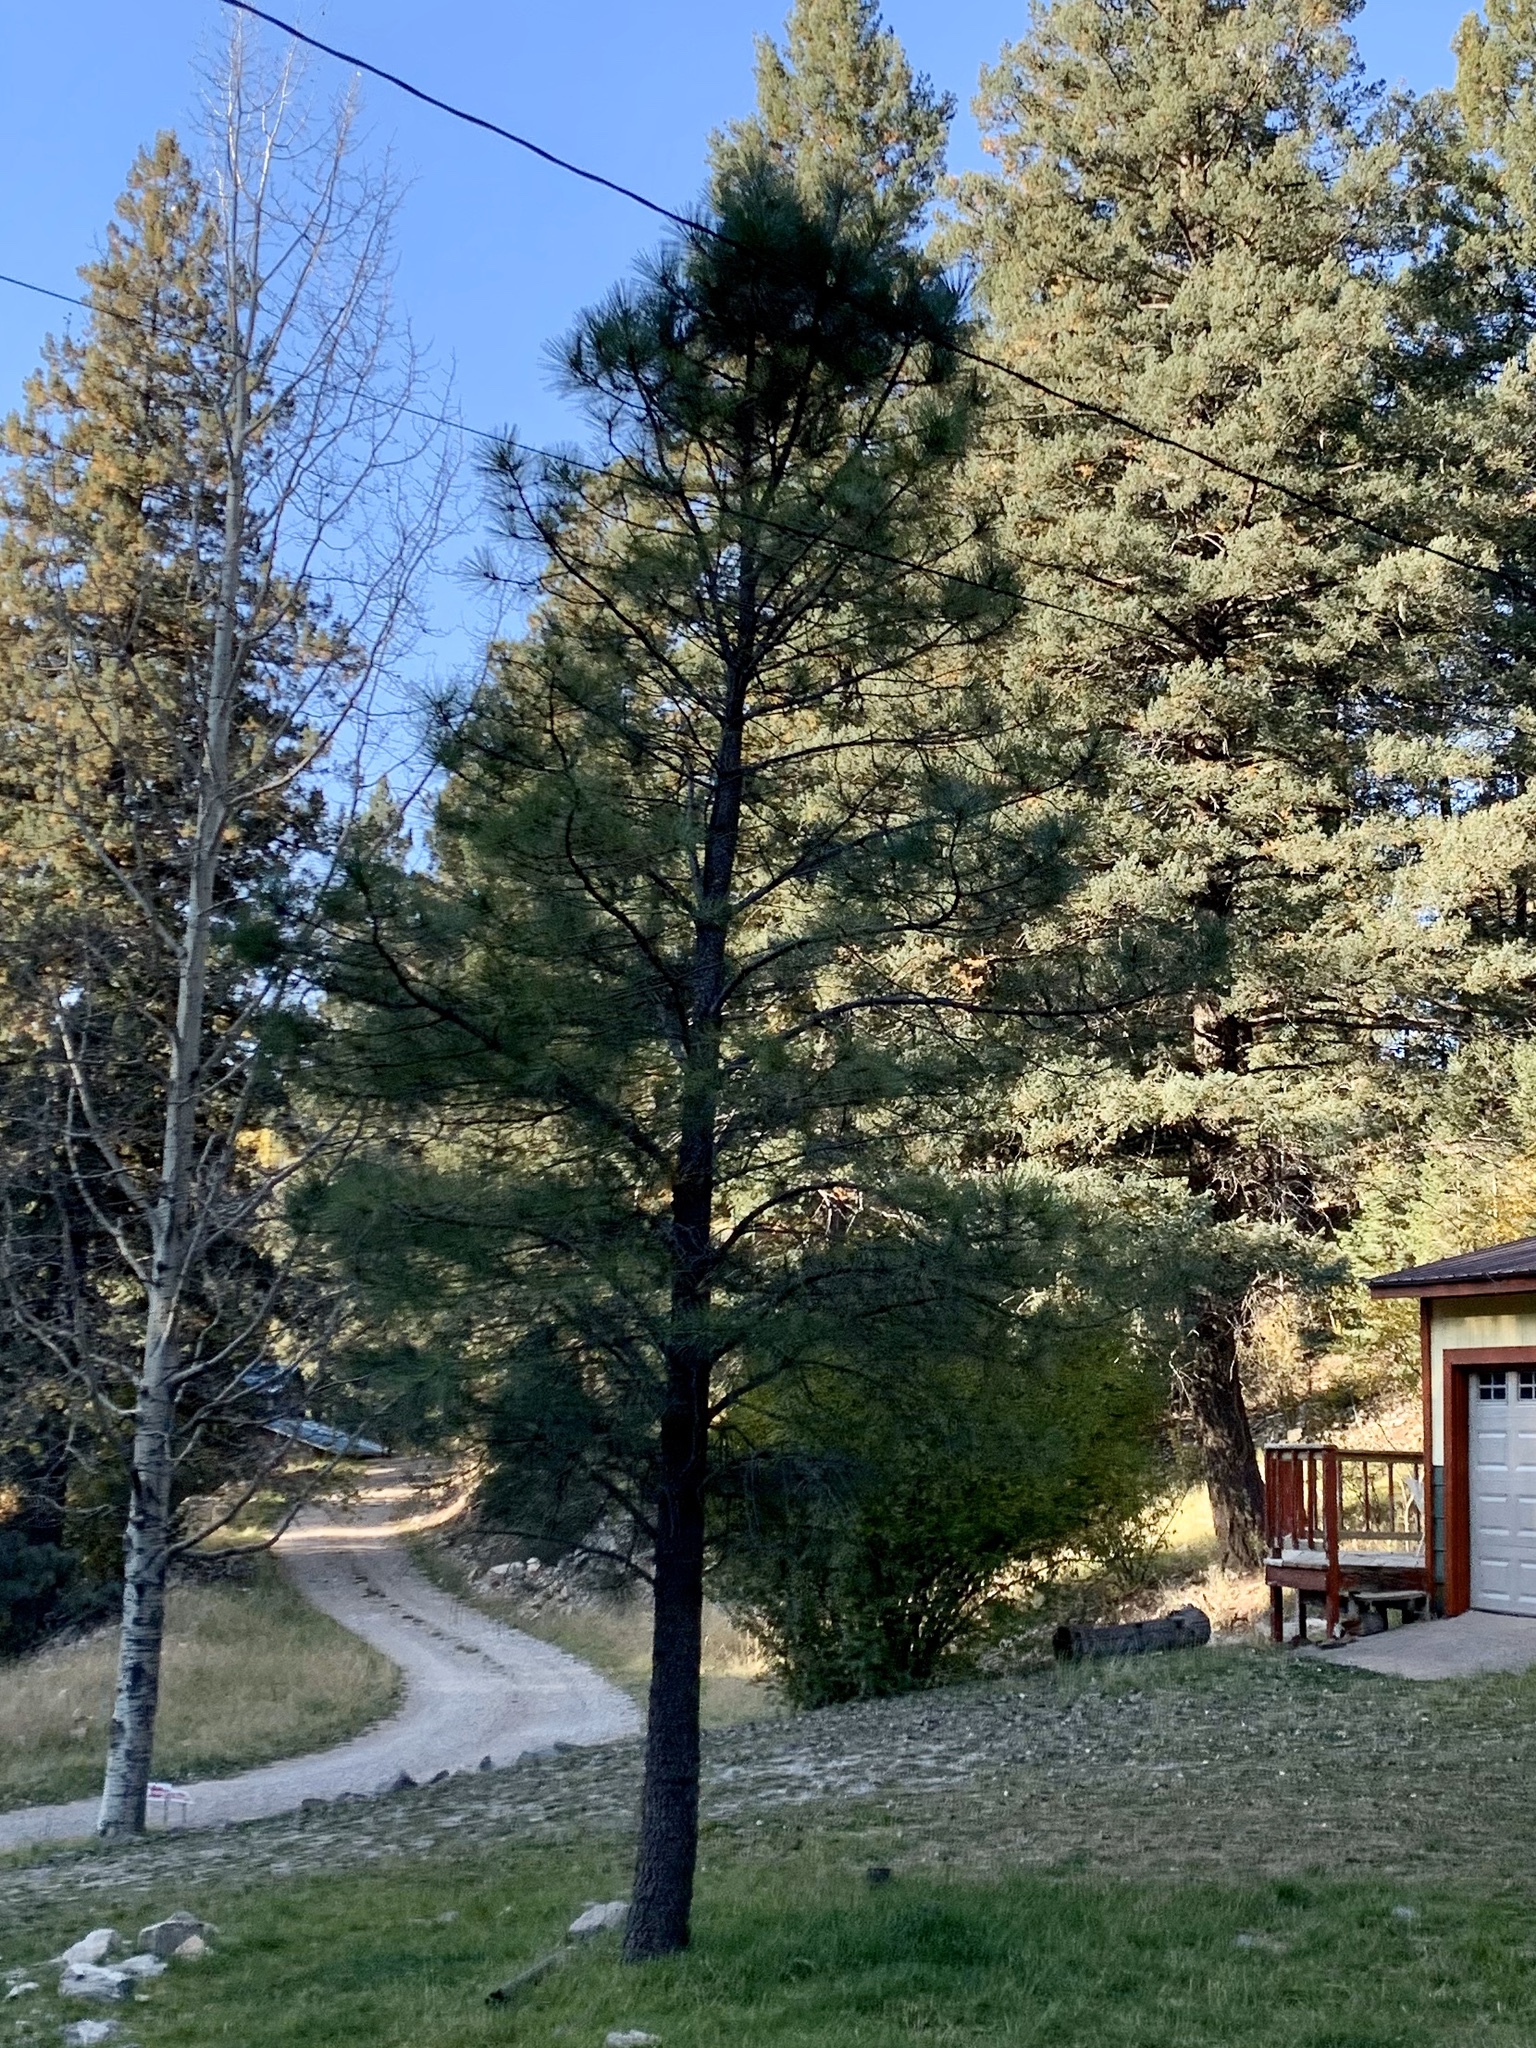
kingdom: Plantae
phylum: Tracheophyta
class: Pinopsida
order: Pinales
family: Pinaceae
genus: Pinus
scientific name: Pinus ponderosa
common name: Western yellow-pine
